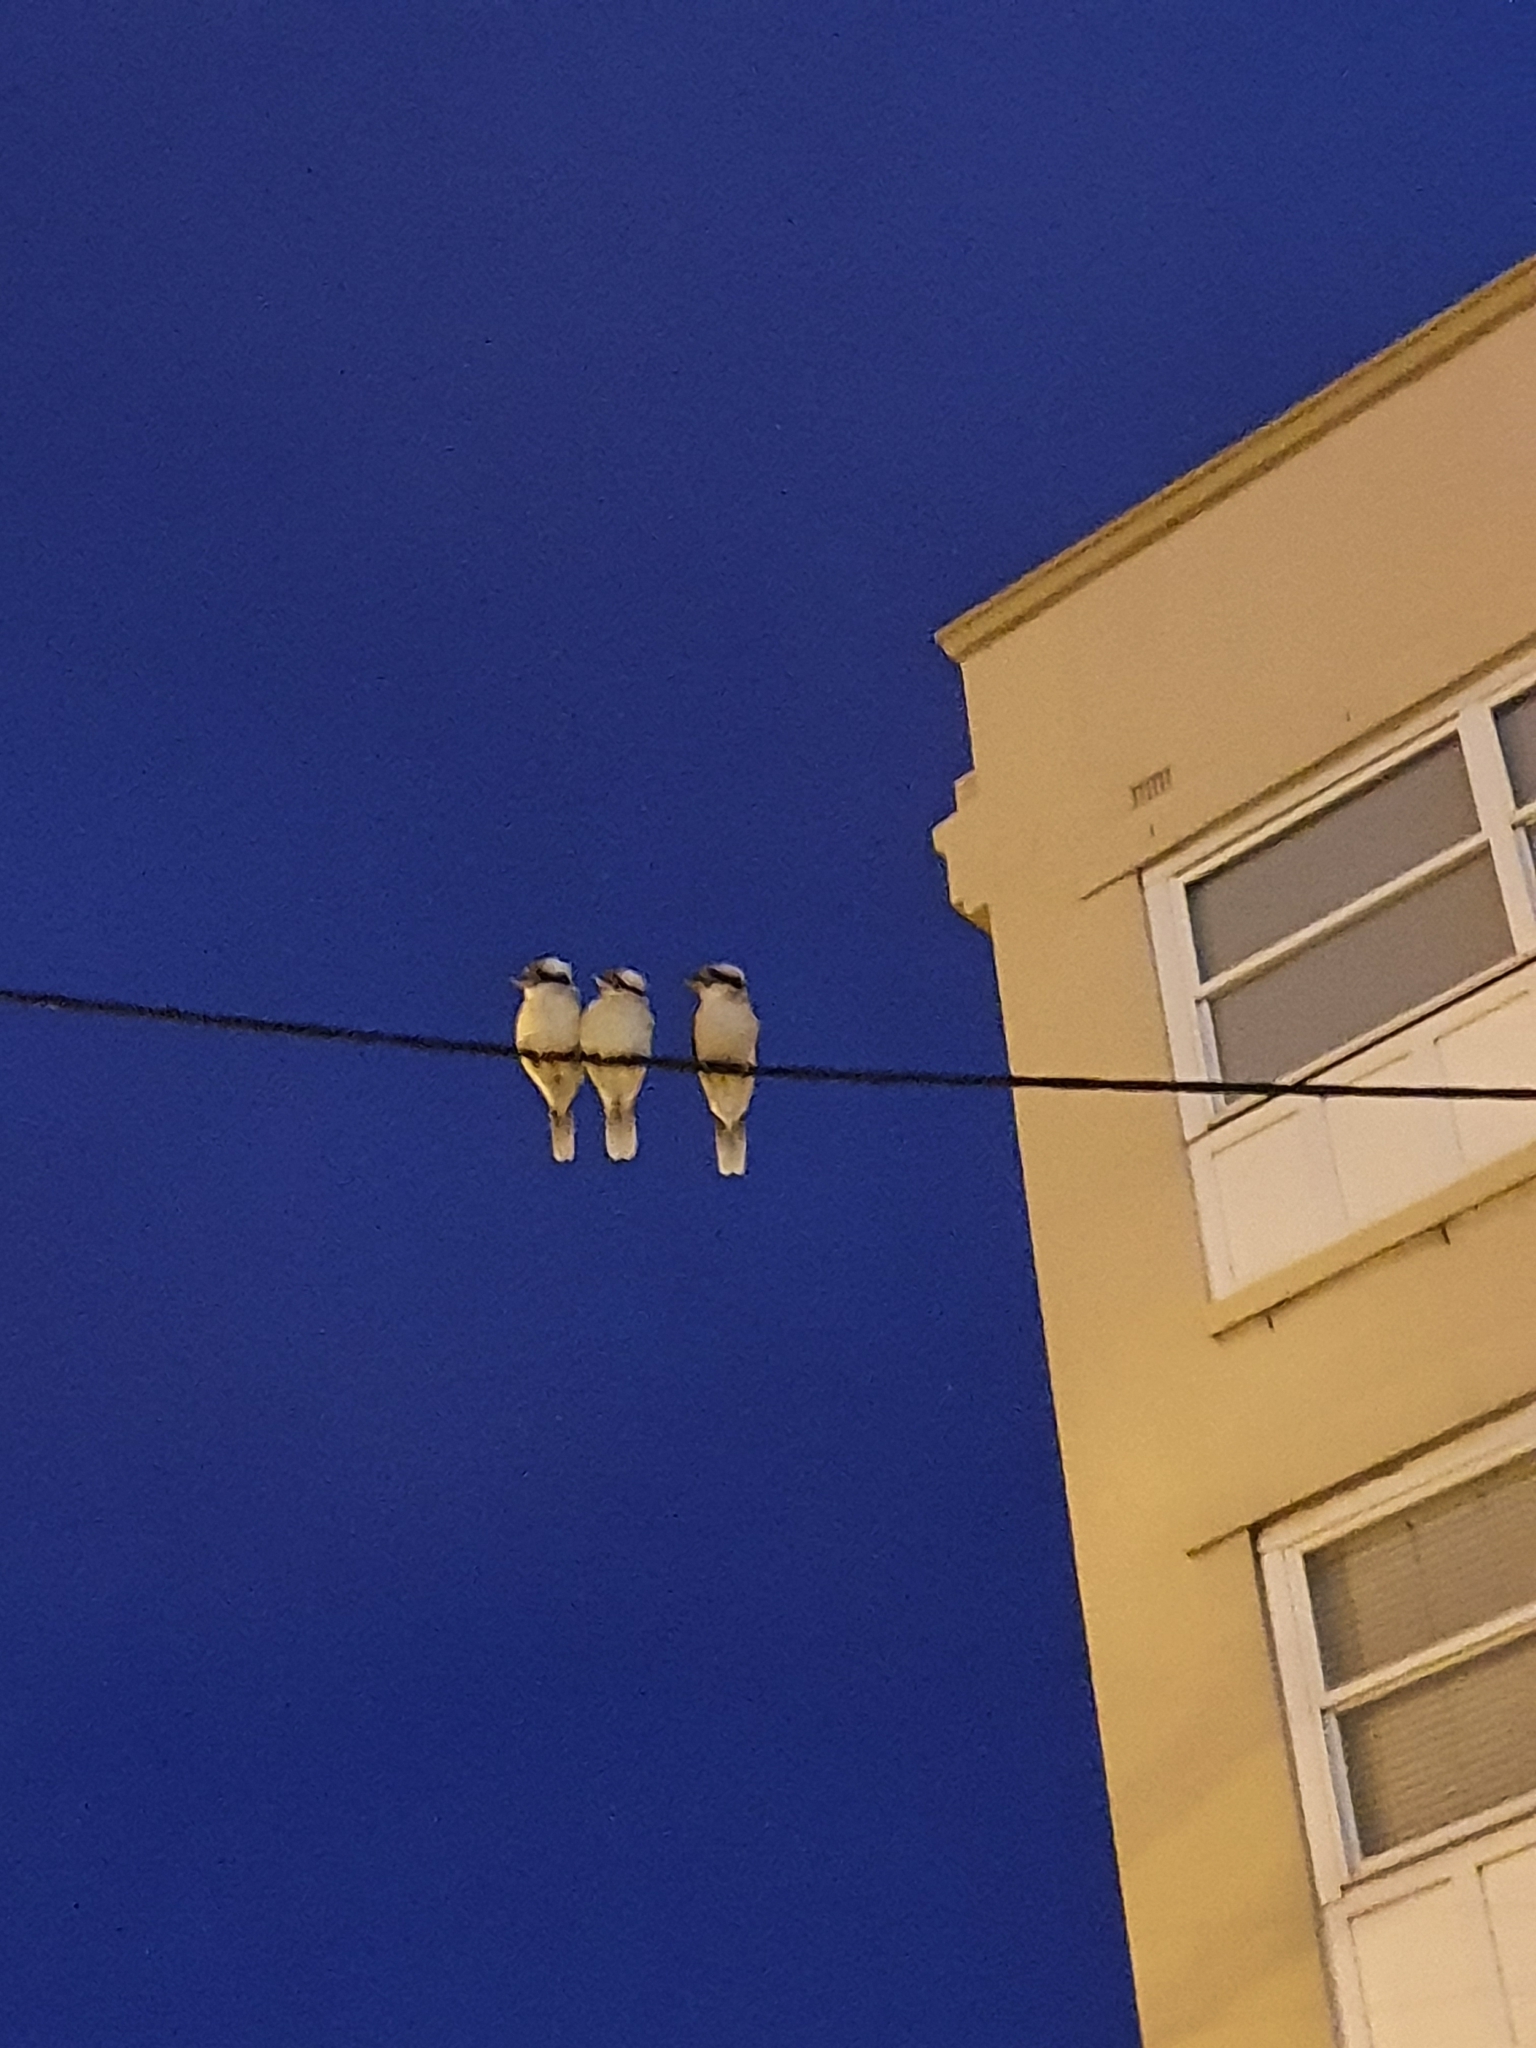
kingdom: Animalia
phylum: Chordata
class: Aves
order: Coraciiformes
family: Alcedinidae
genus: Dacelo
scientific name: Dacelo novaeguineae
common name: Laughing kookaburra
